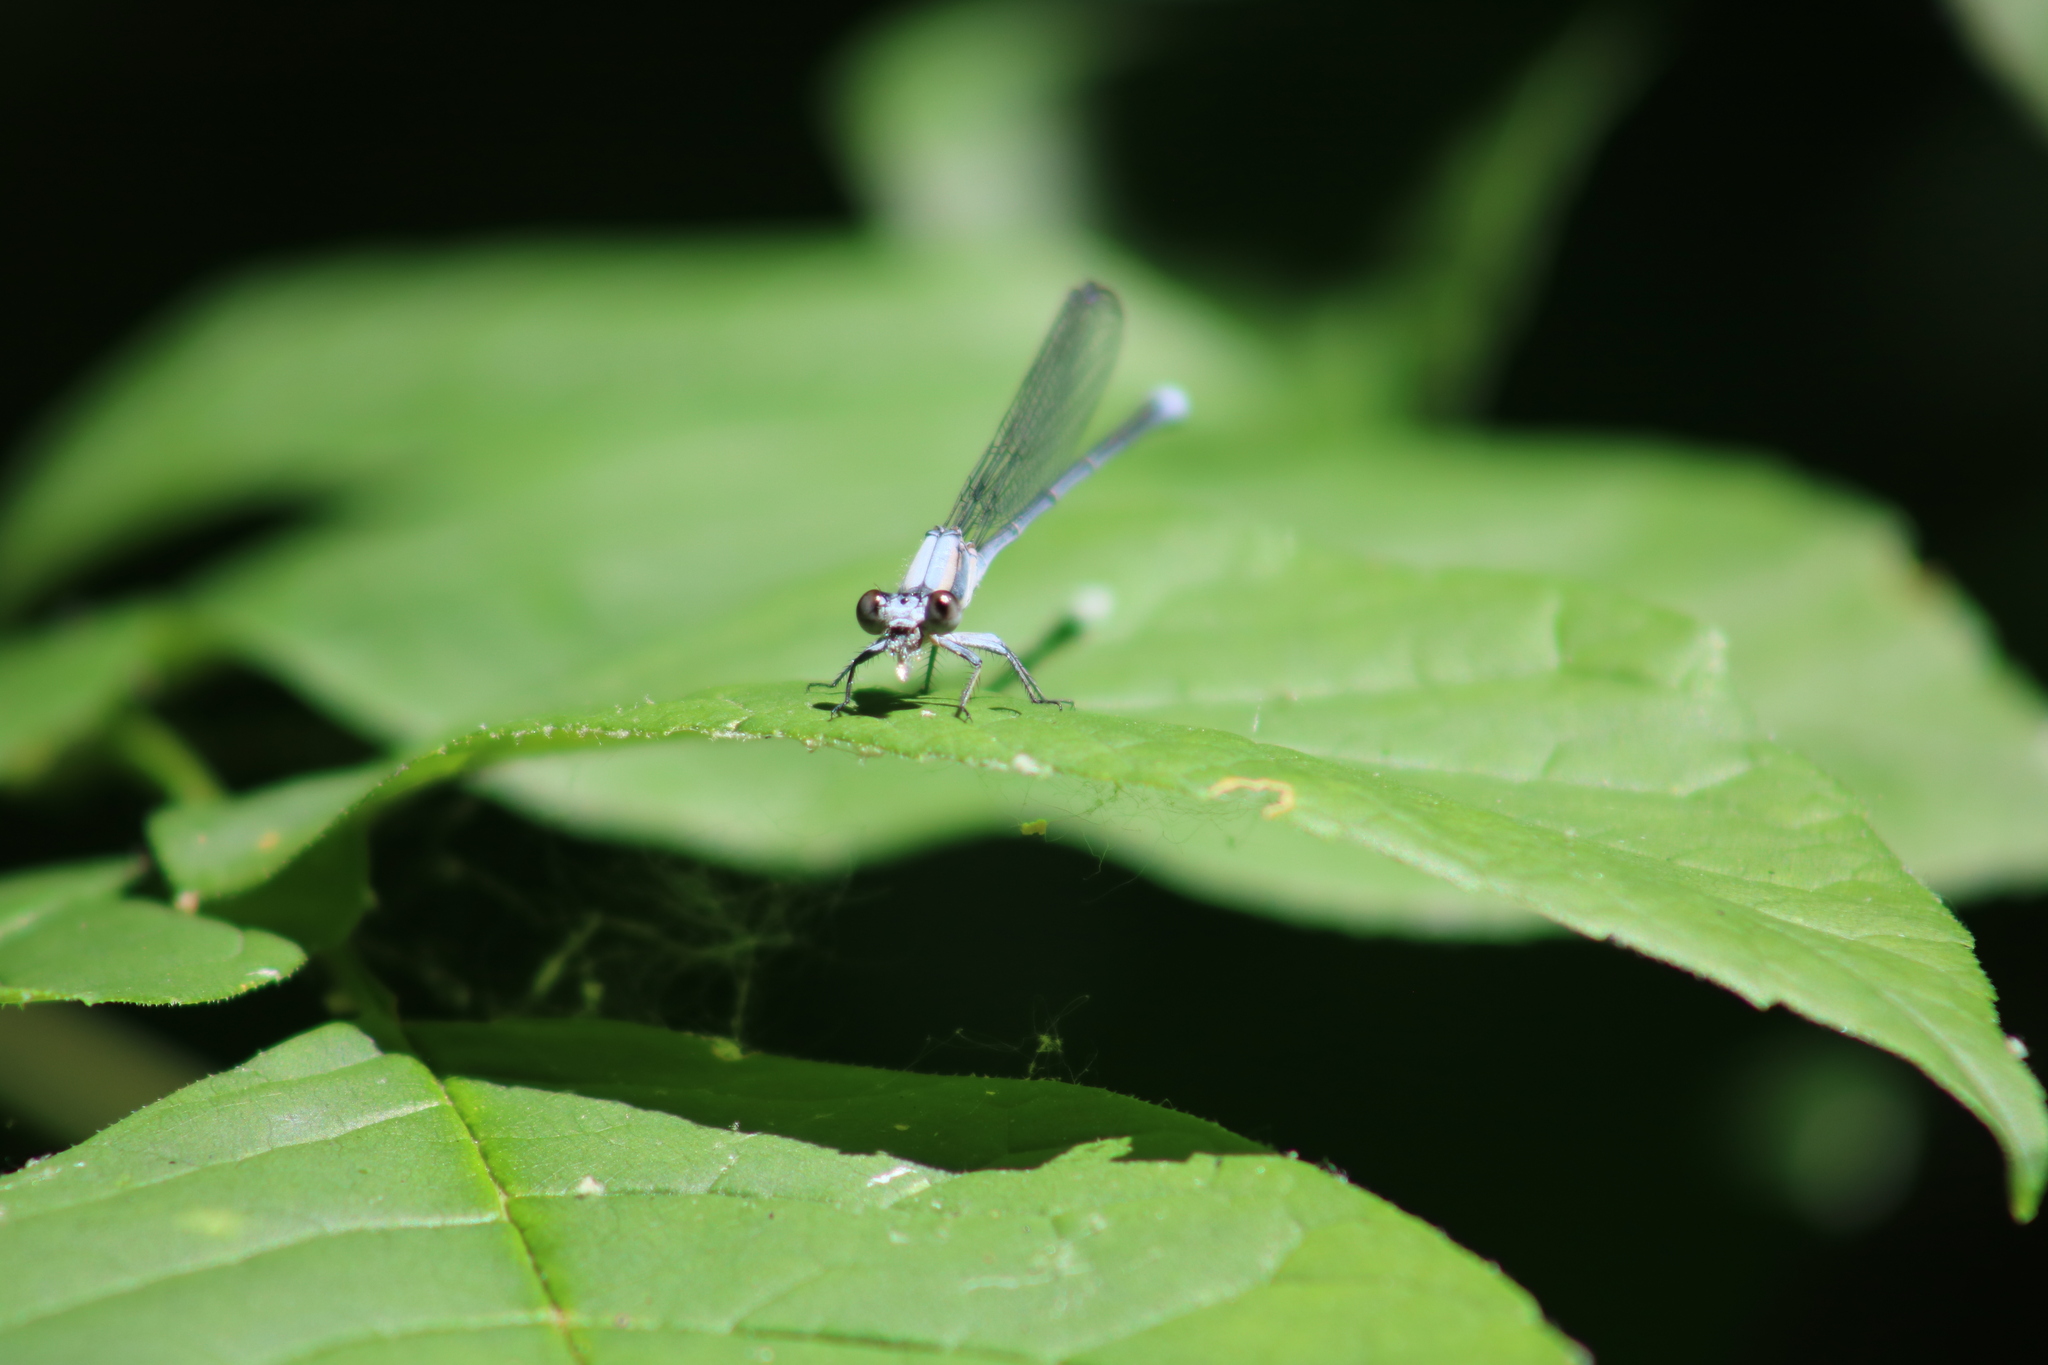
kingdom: Animalia
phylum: Arthropoda
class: Insecta
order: Odonata
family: Coenagrionidae
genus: Argia
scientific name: Argia moesta
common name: Powdered dancer
